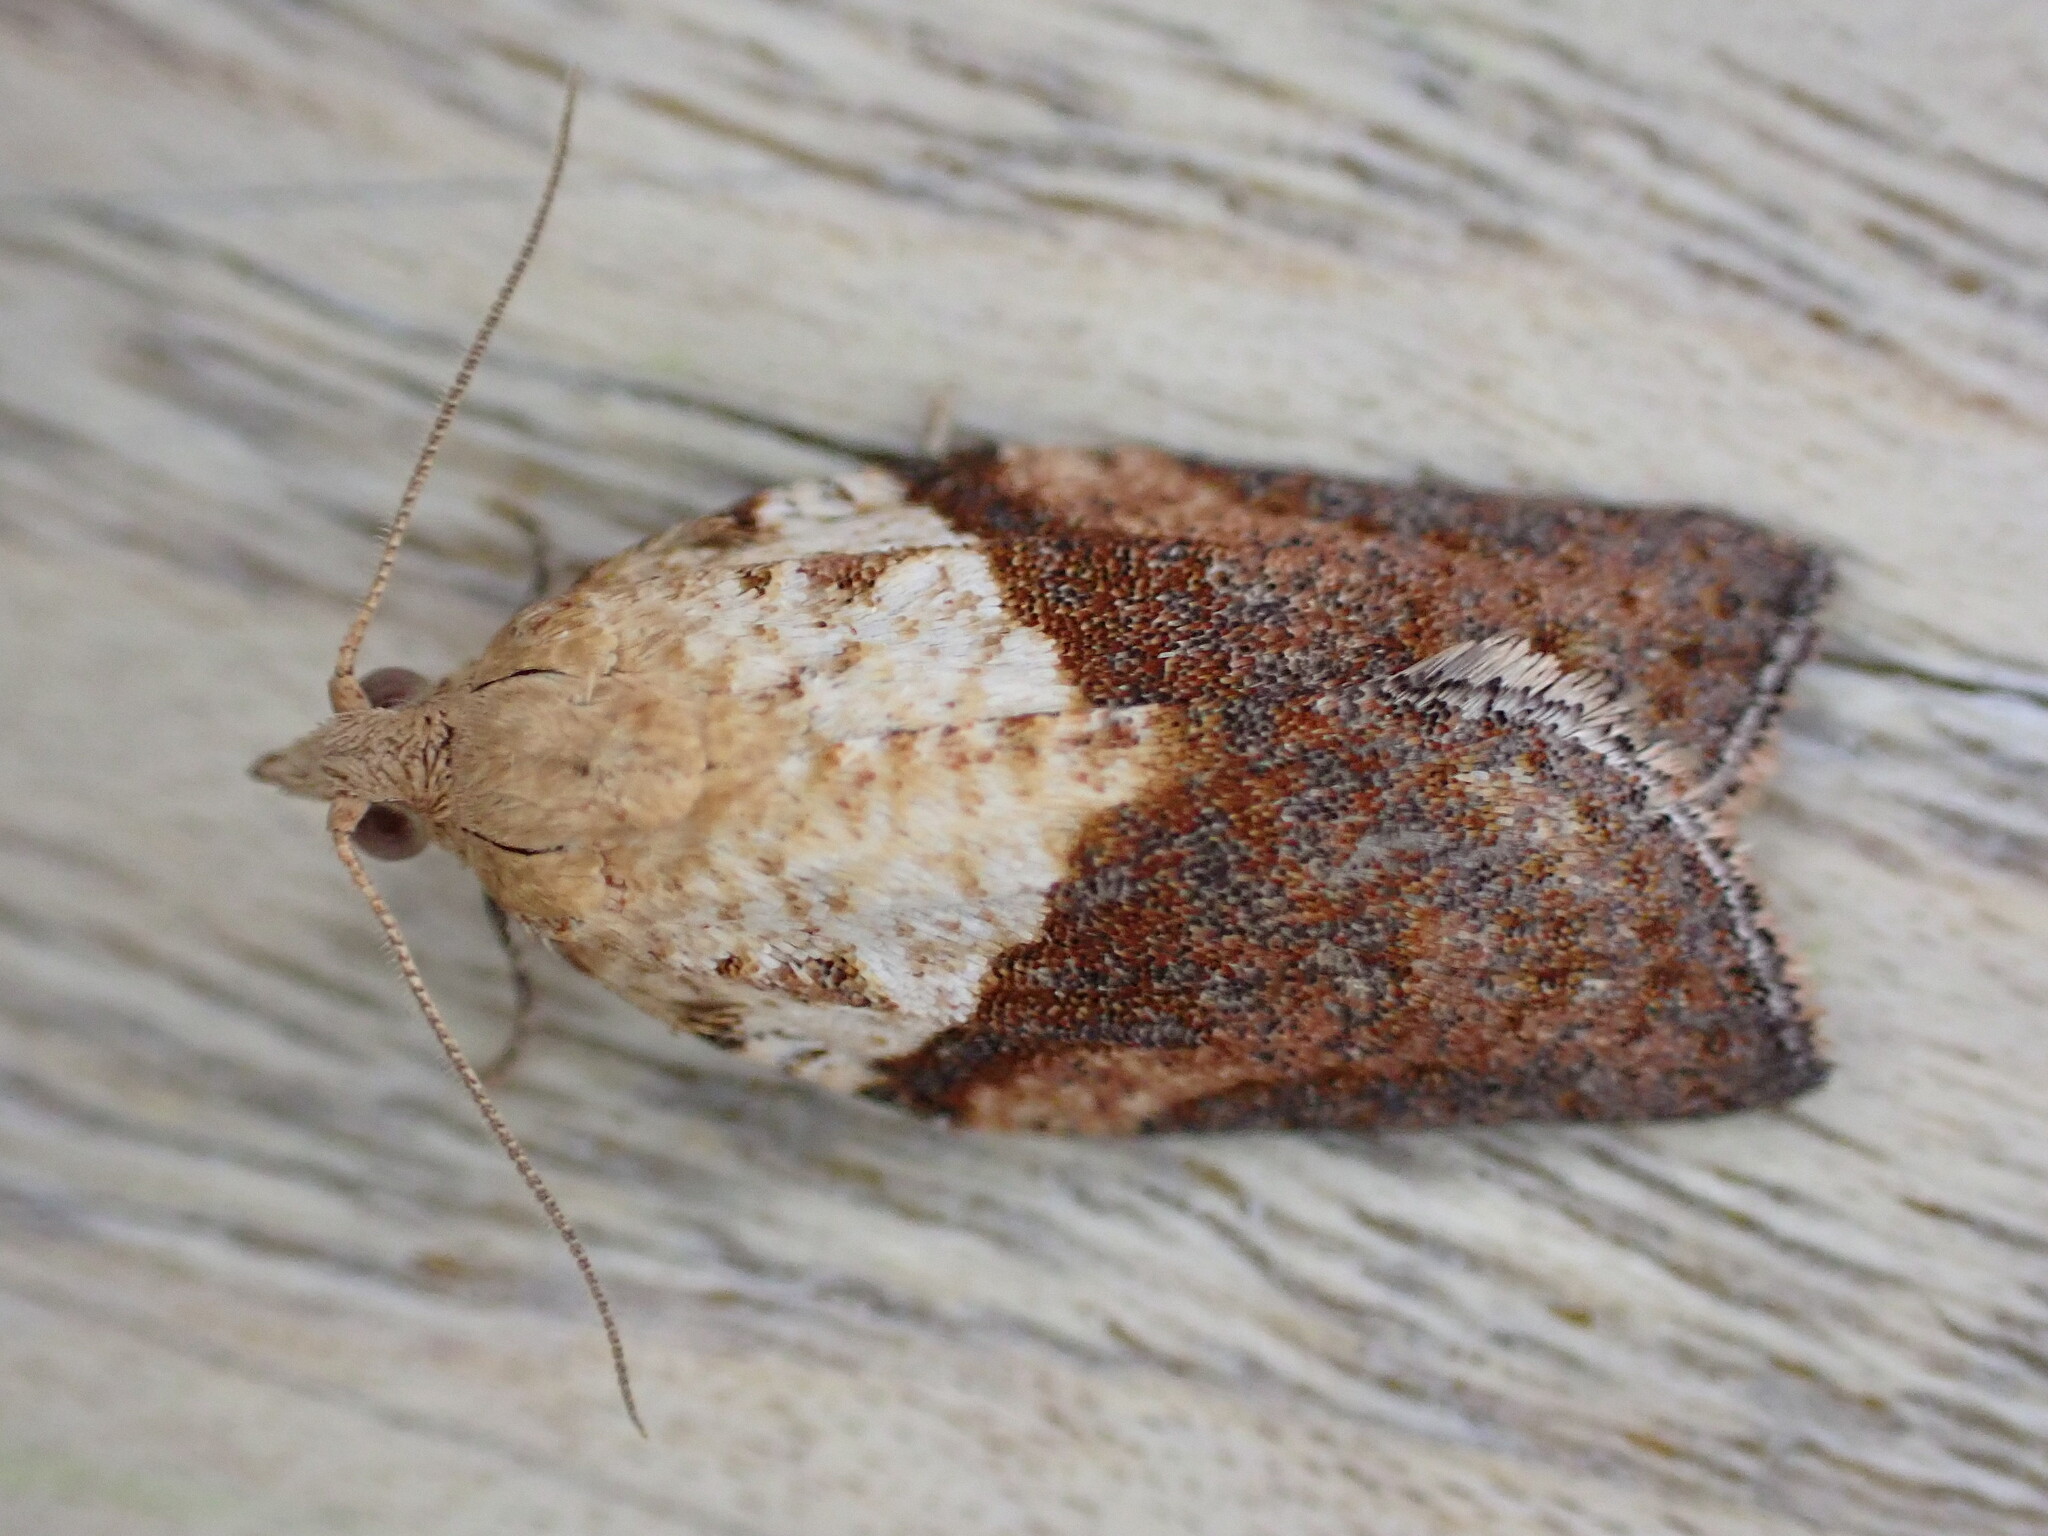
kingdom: Animalia
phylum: Arthropoda
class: Insecta
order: Lepidoptera
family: Tortricidae
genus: Epiphyas
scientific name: Epiphyas postvittana
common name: Light brown apple moth
